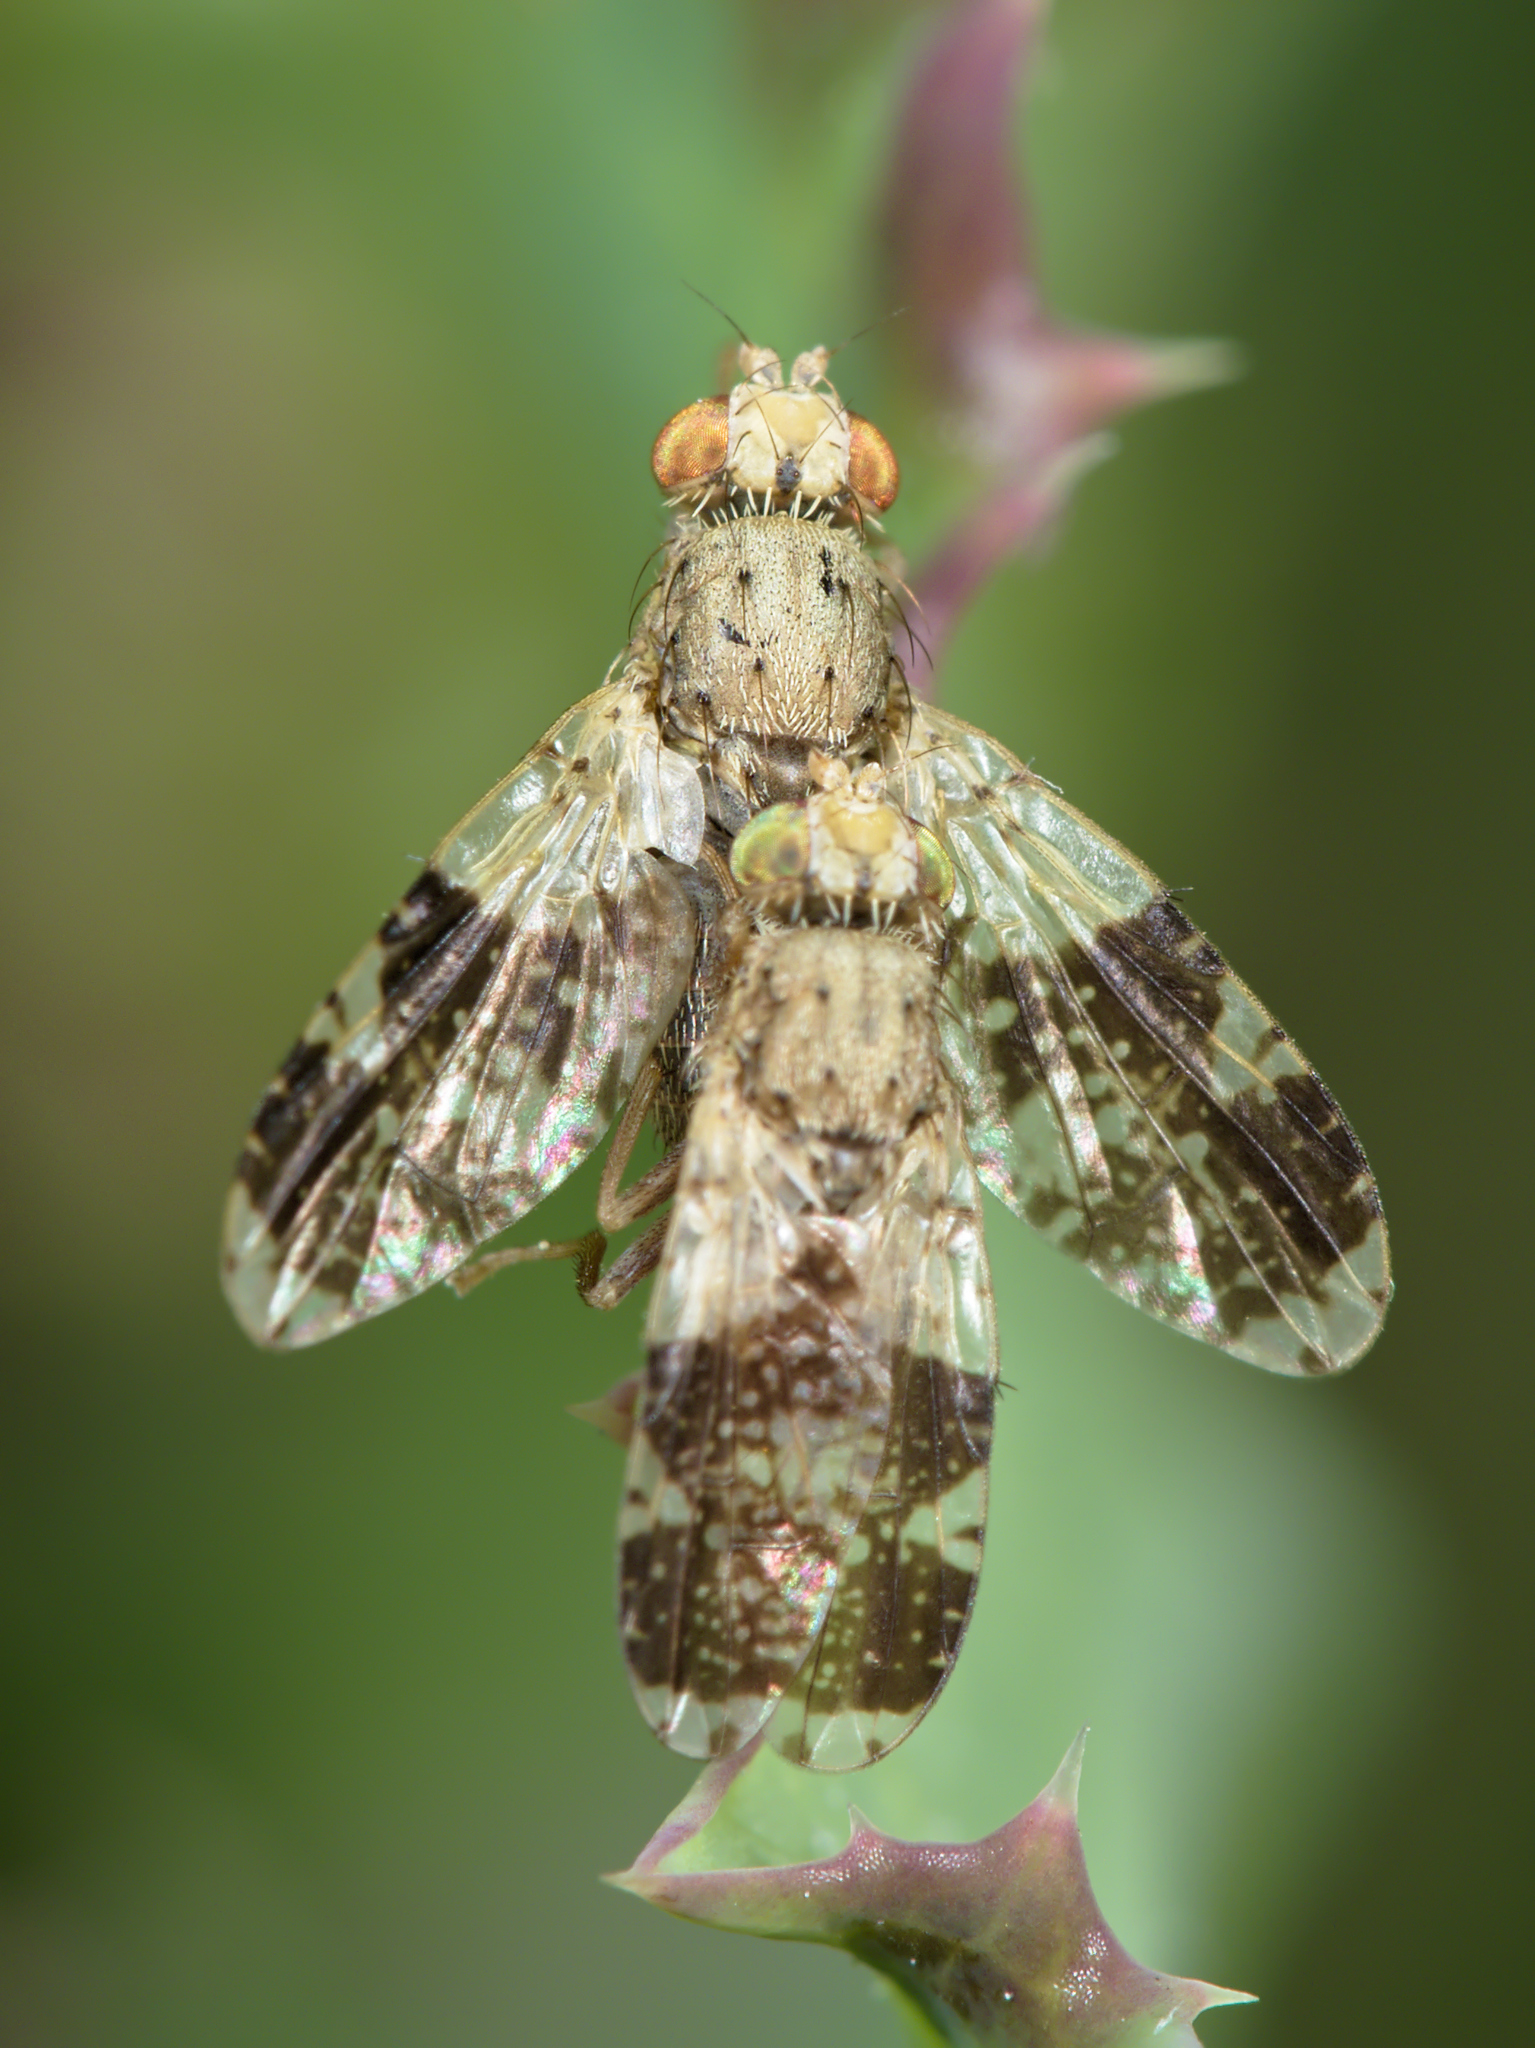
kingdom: Animalia
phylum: Arthropoda
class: Insecta
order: Diptera
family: Tephritidae
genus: Tephritis
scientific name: Tephritis formosa
